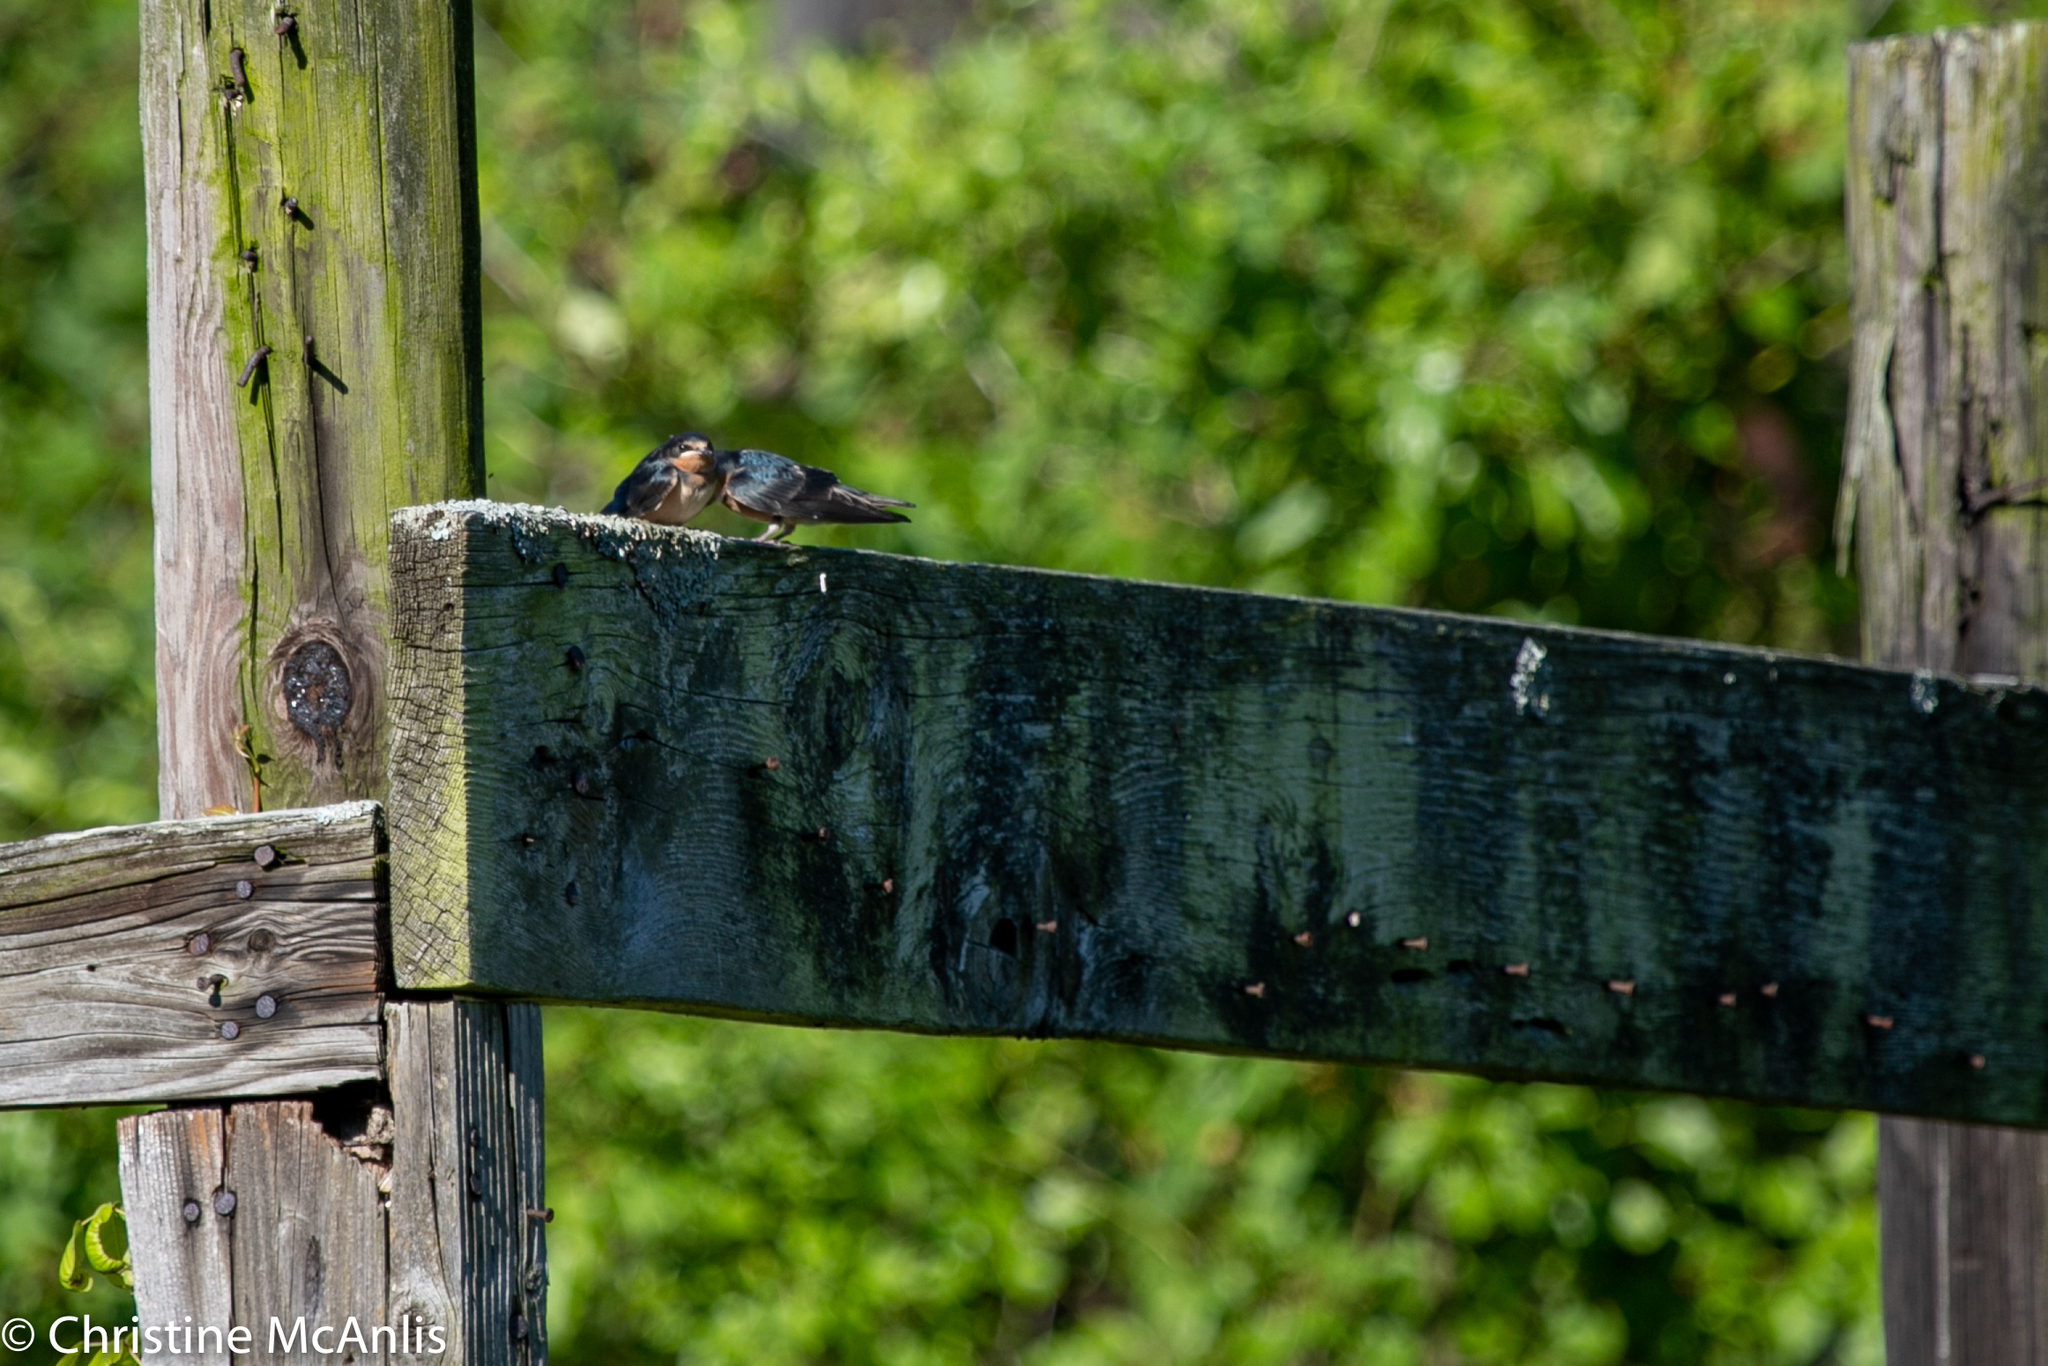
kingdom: Animalia
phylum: Chordata
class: Aves
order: Passeriformes
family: Hirundinidae
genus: Hirundo
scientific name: Hirundo rustica
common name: Barn swallow
